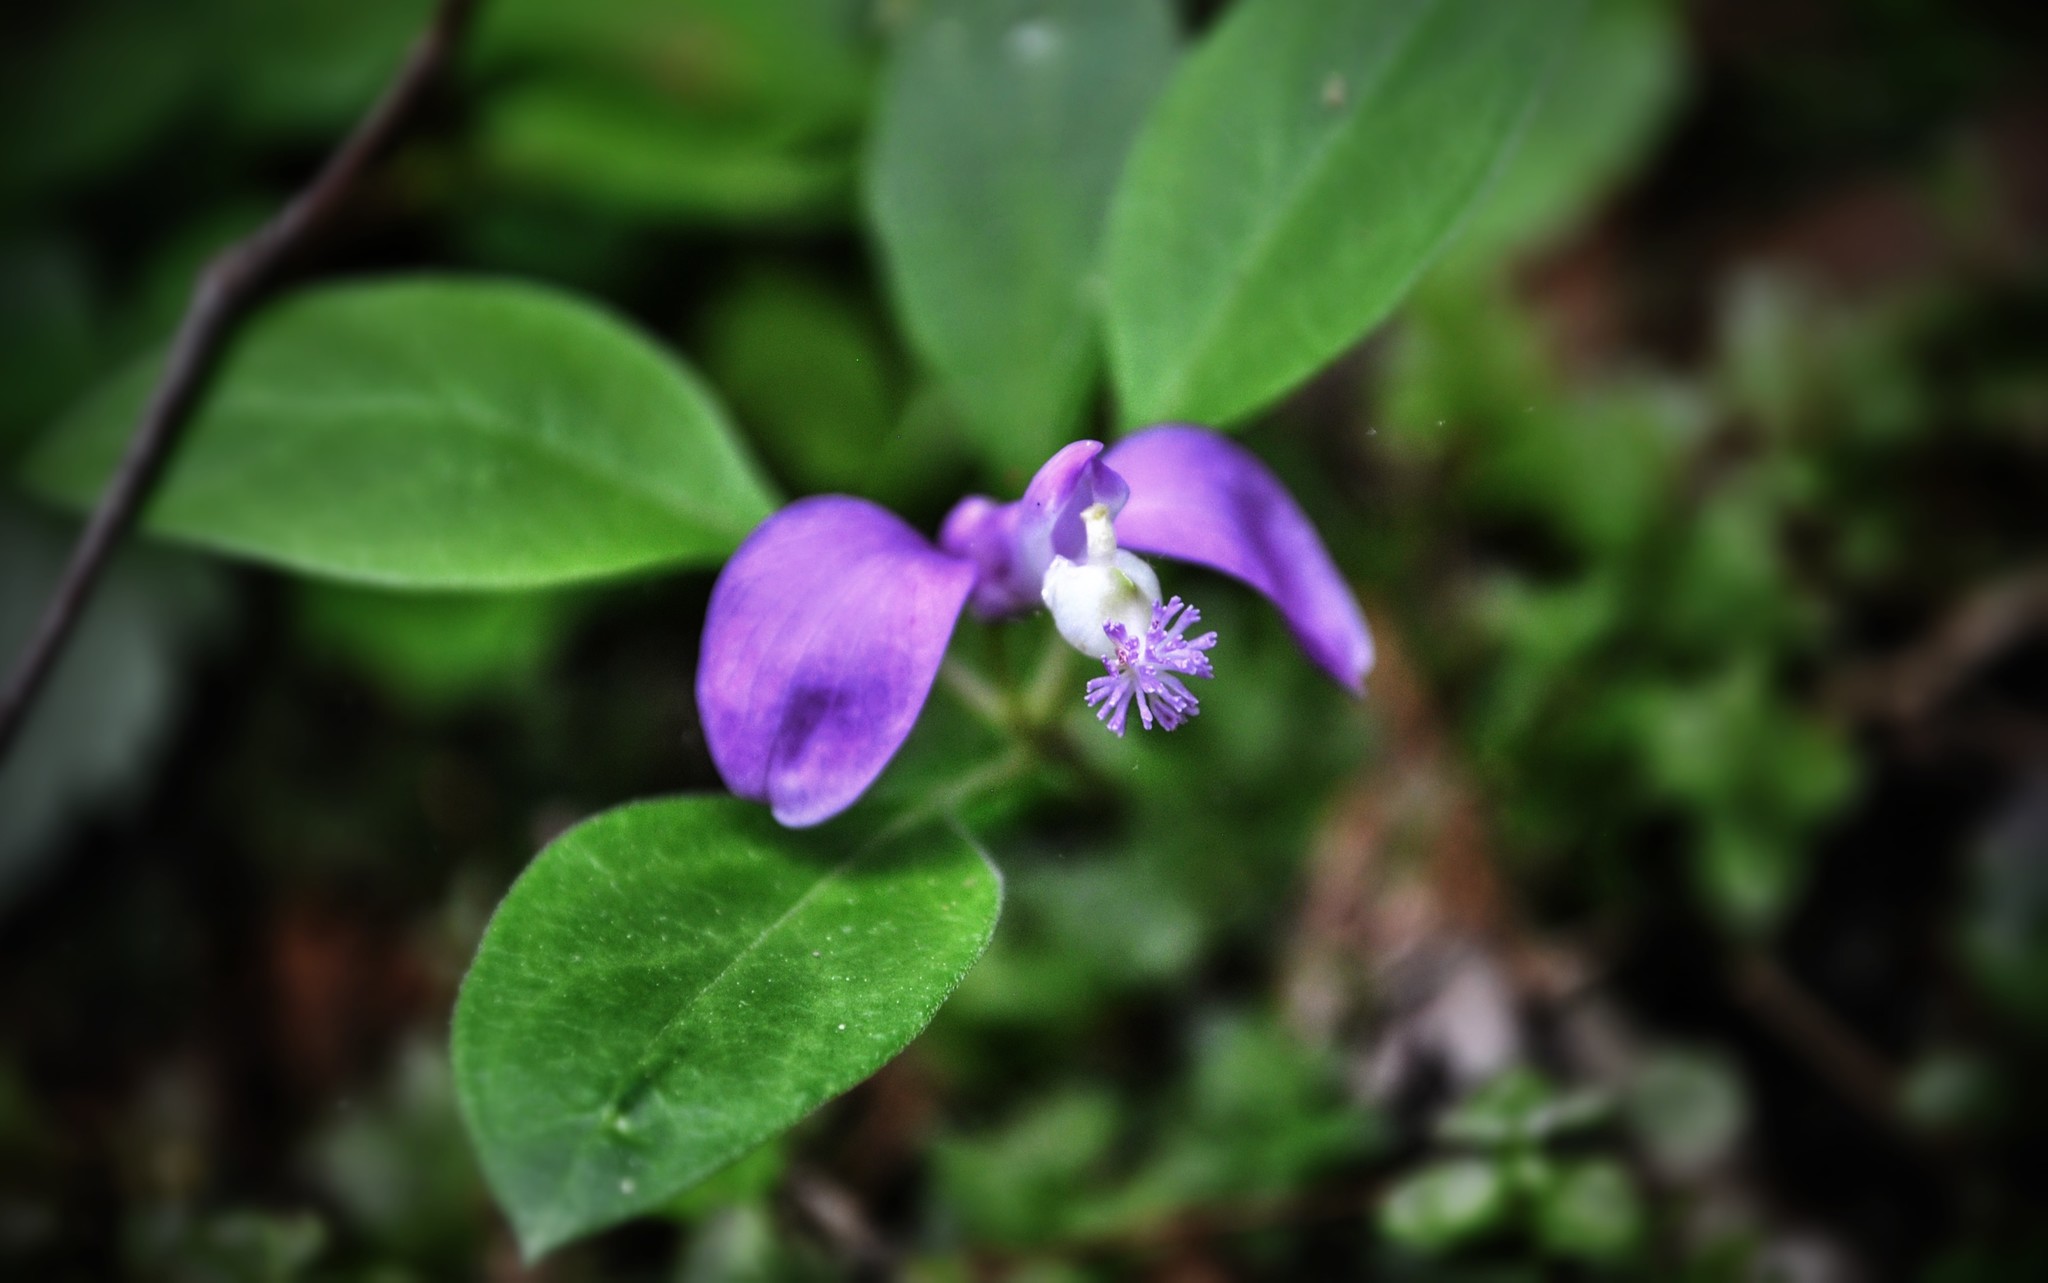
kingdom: Plantae
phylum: Tracheophyta
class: Magnoliopsida
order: Fabales
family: Polygalaceae
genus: Polygaloides
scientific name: Polygaloides paucifolia
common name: Bird-on-the-wing
